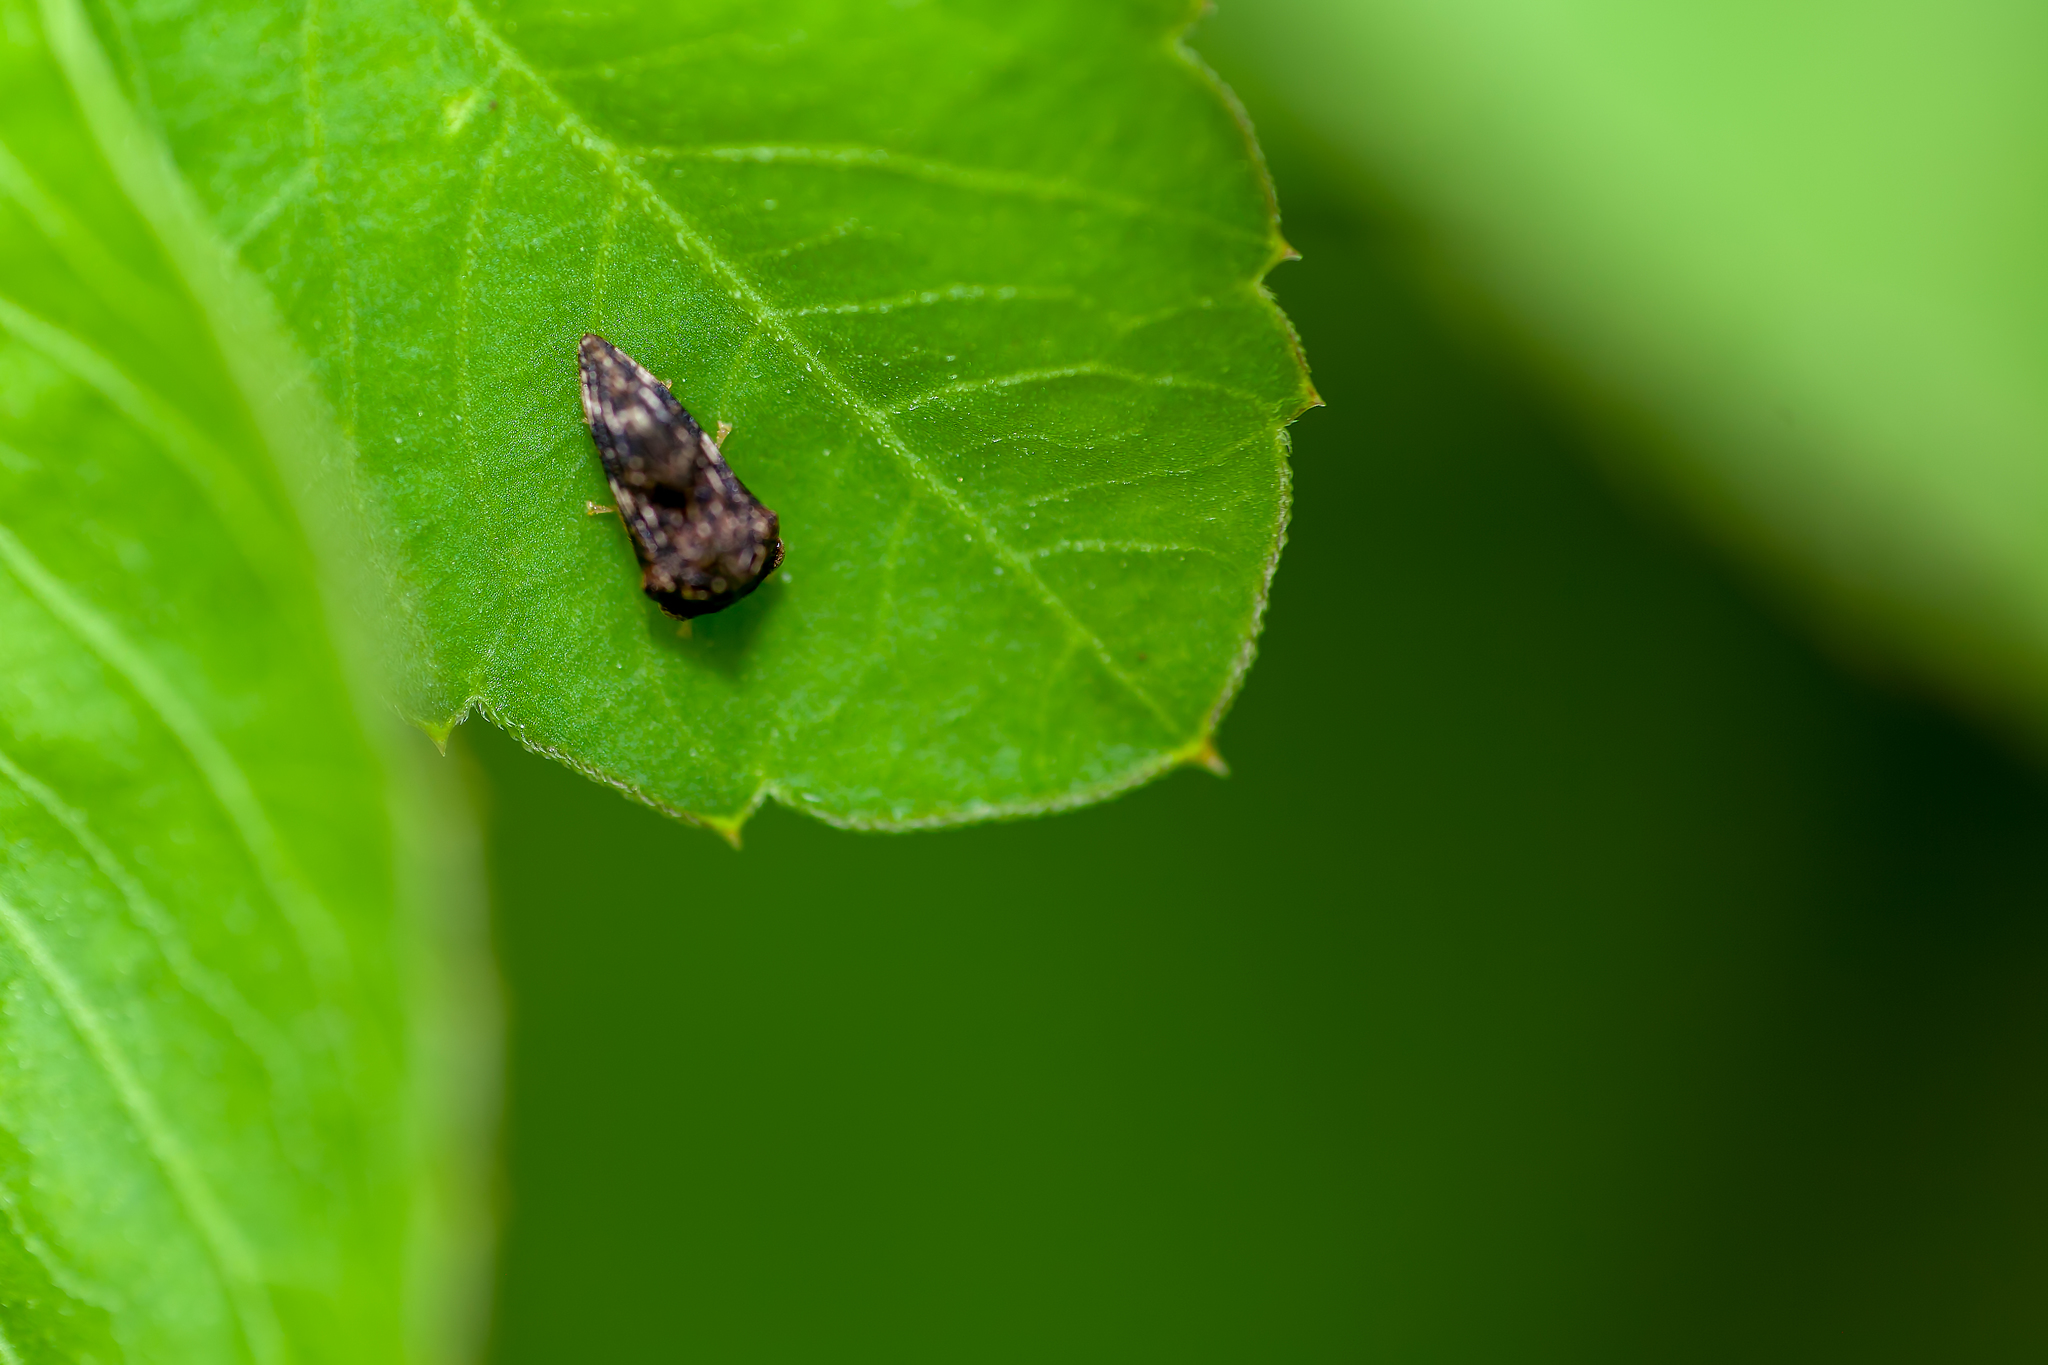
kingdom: Animalia
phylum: Arthropoda
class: Insecta
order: Hemiptera
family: Membracidae
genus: Entylia
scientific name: Entylia carinata
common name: Keeled treehopper
